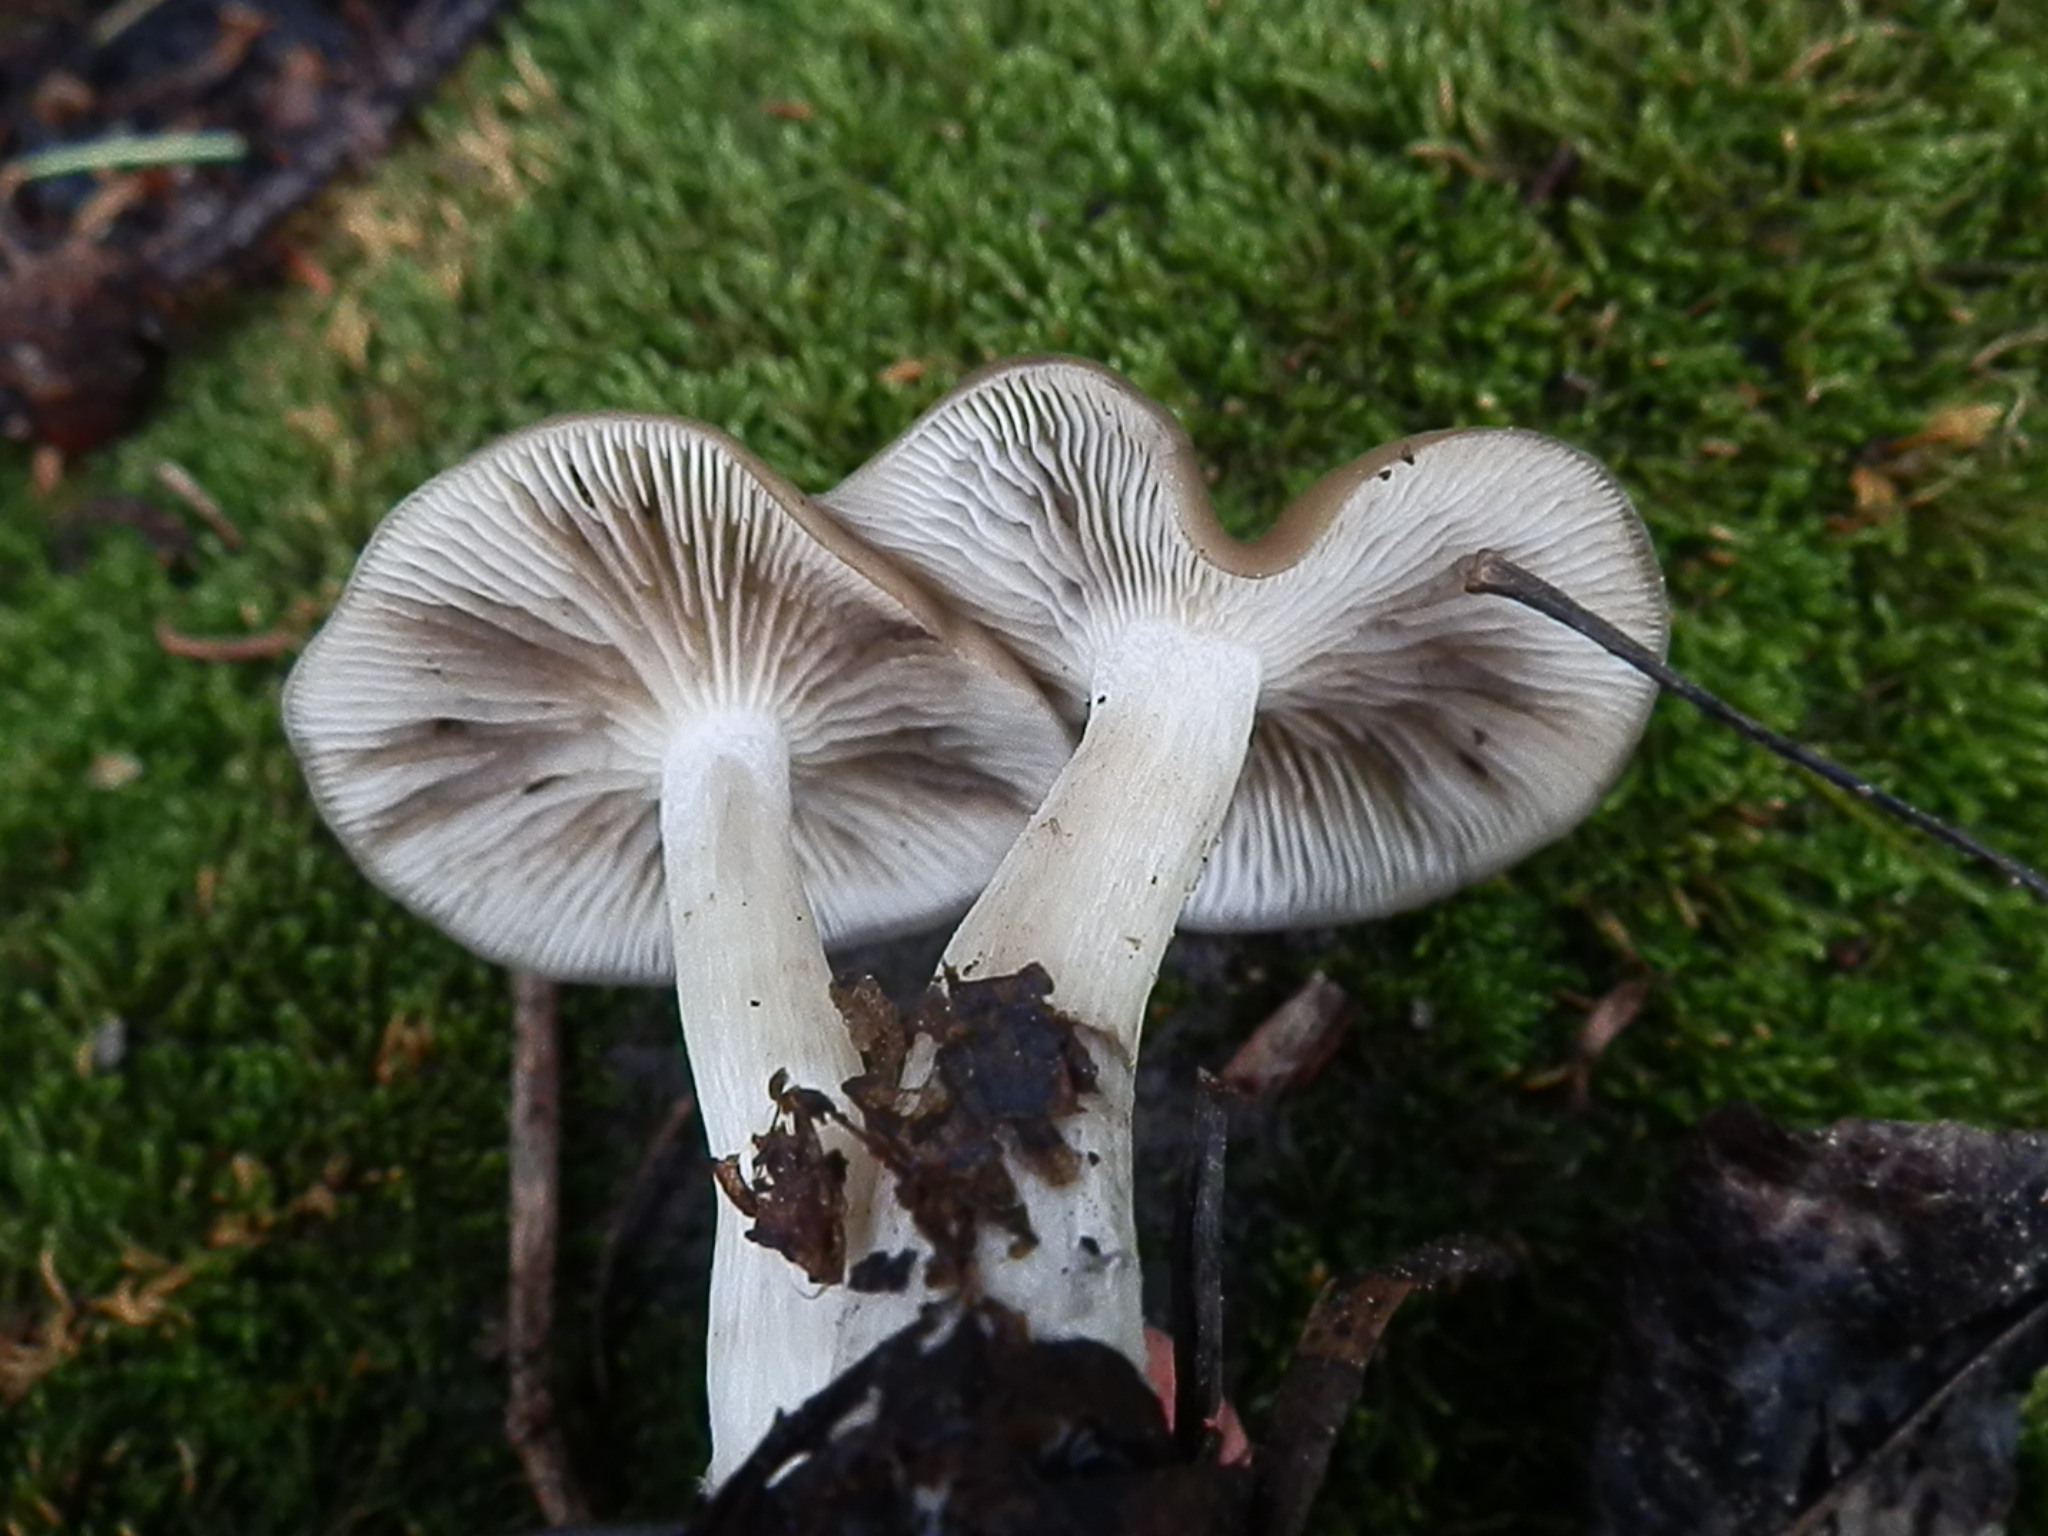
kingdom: Fungi
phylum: Basidiomycota
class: Agaricomycetes
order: Agaricales
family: Lyophyllaceae
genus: Lyophyllum
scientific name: Lyophyllum infumatum
